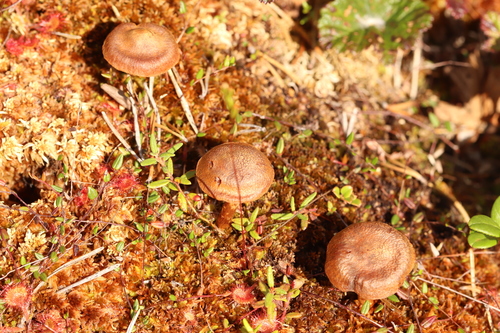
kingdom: Fungi
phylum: Basidiomycota
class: Agaricomycetes
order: Agaricales
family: Cortinariaceae
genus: Cortinarius
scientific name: Cortinarius chrysolitus
